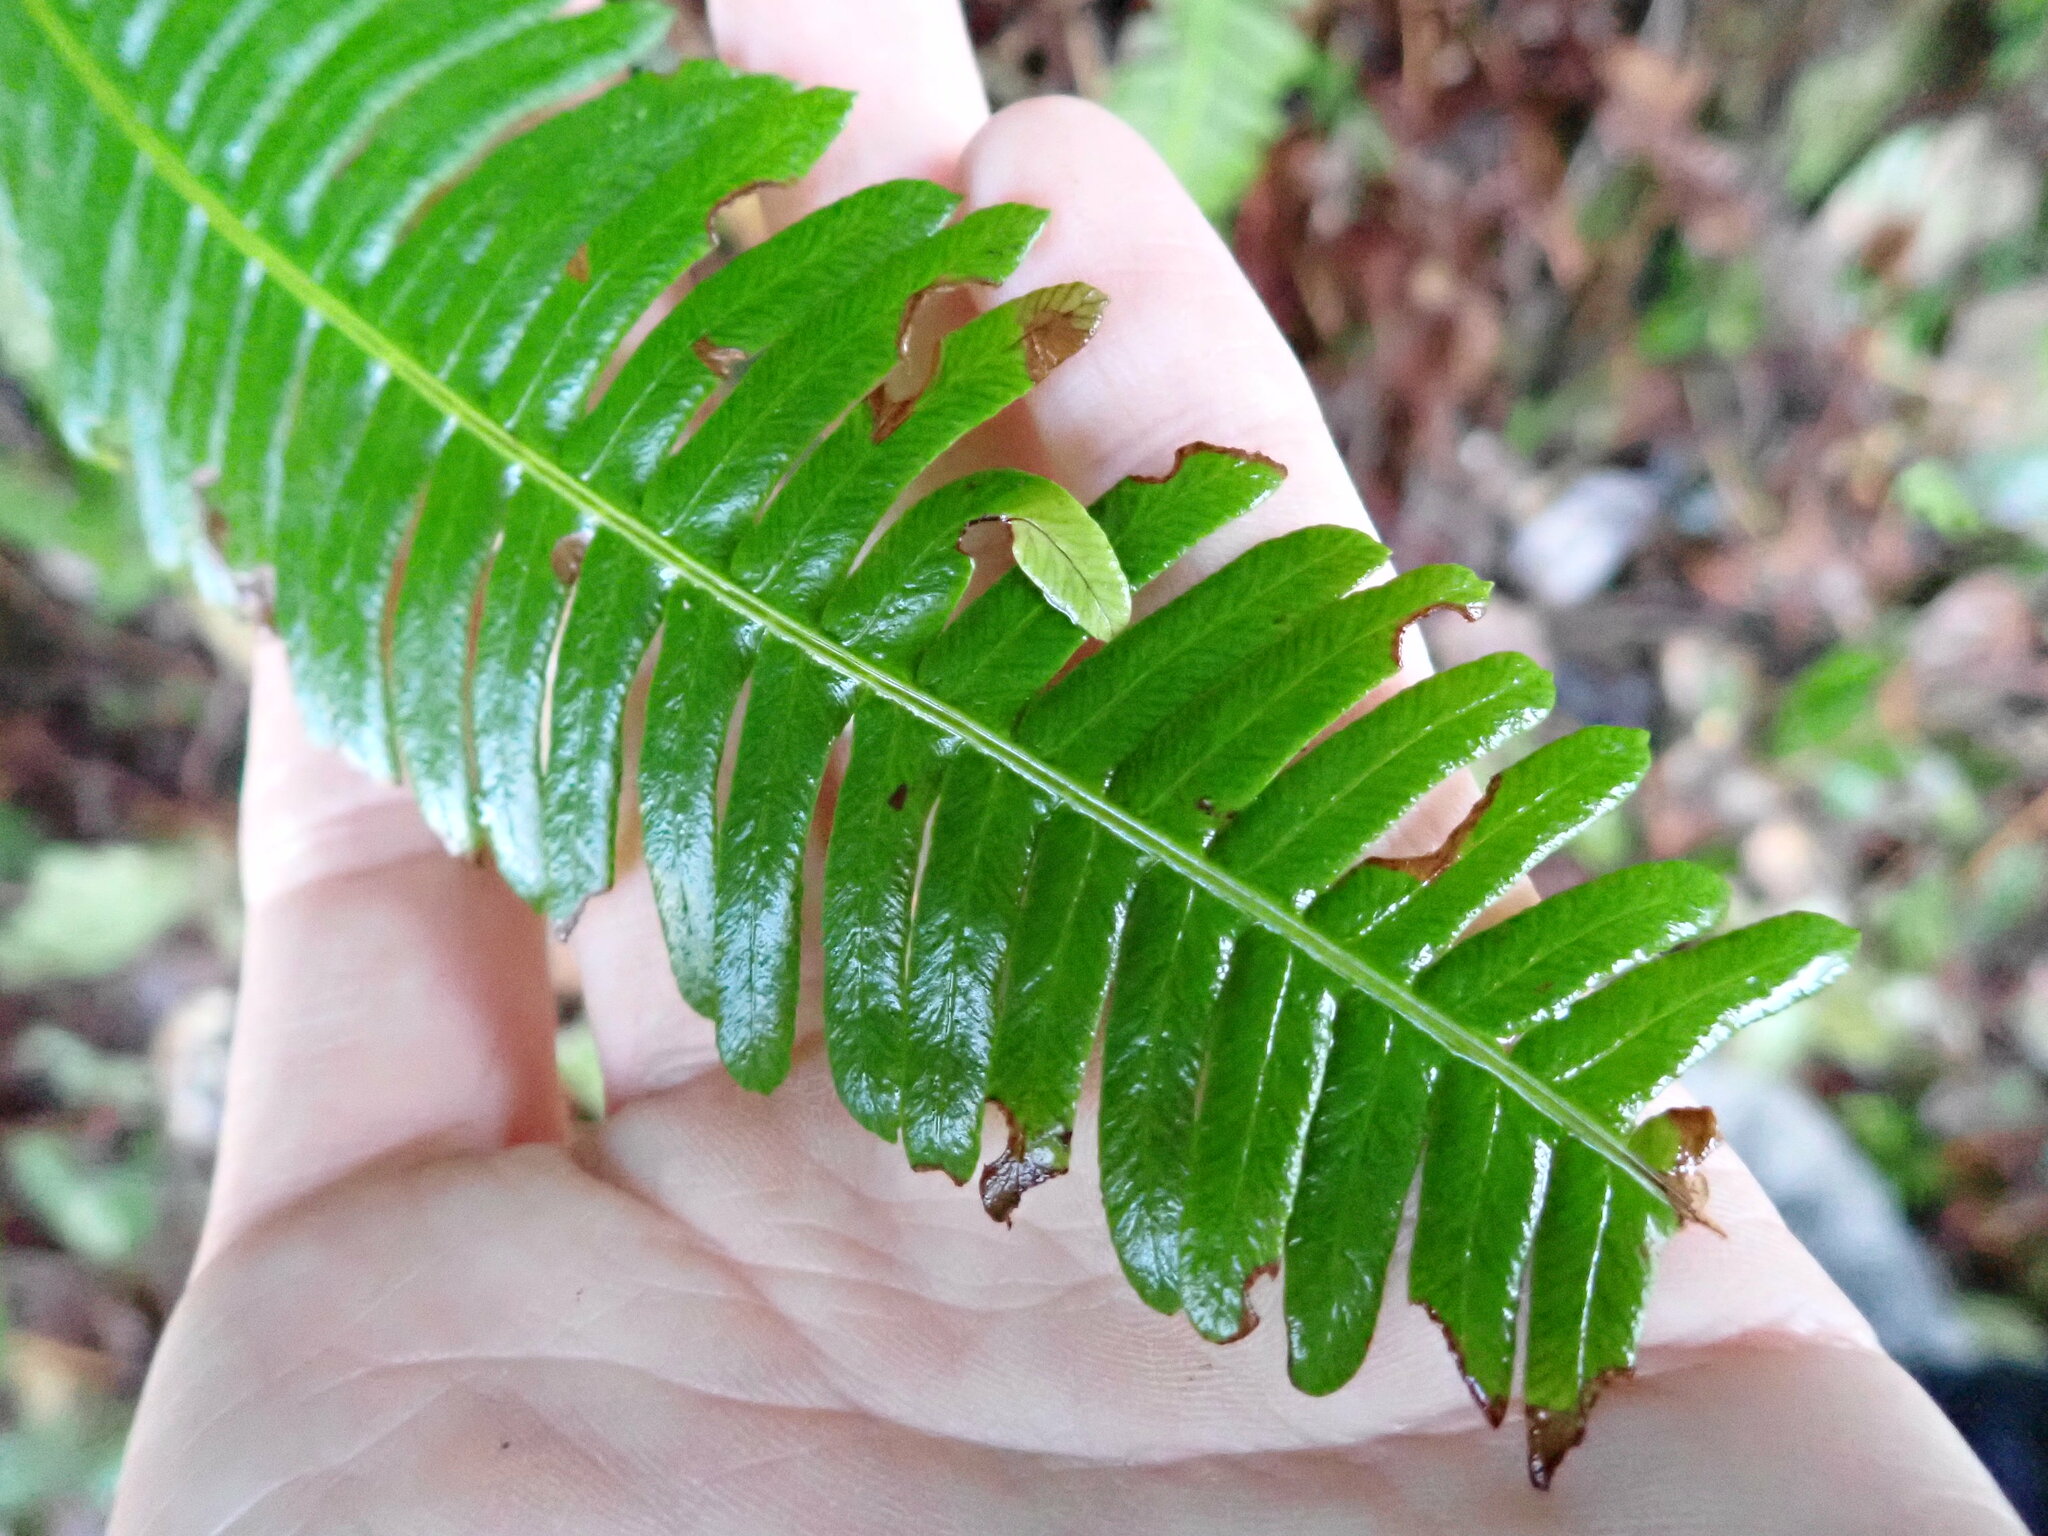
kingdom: Plantae
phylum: Tracheophyta
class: Polypodiopsida
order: Polypodiales
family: Blechnaceae
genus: Struthiopteris
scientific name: Struthiopteris spicant
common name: Deer fern
